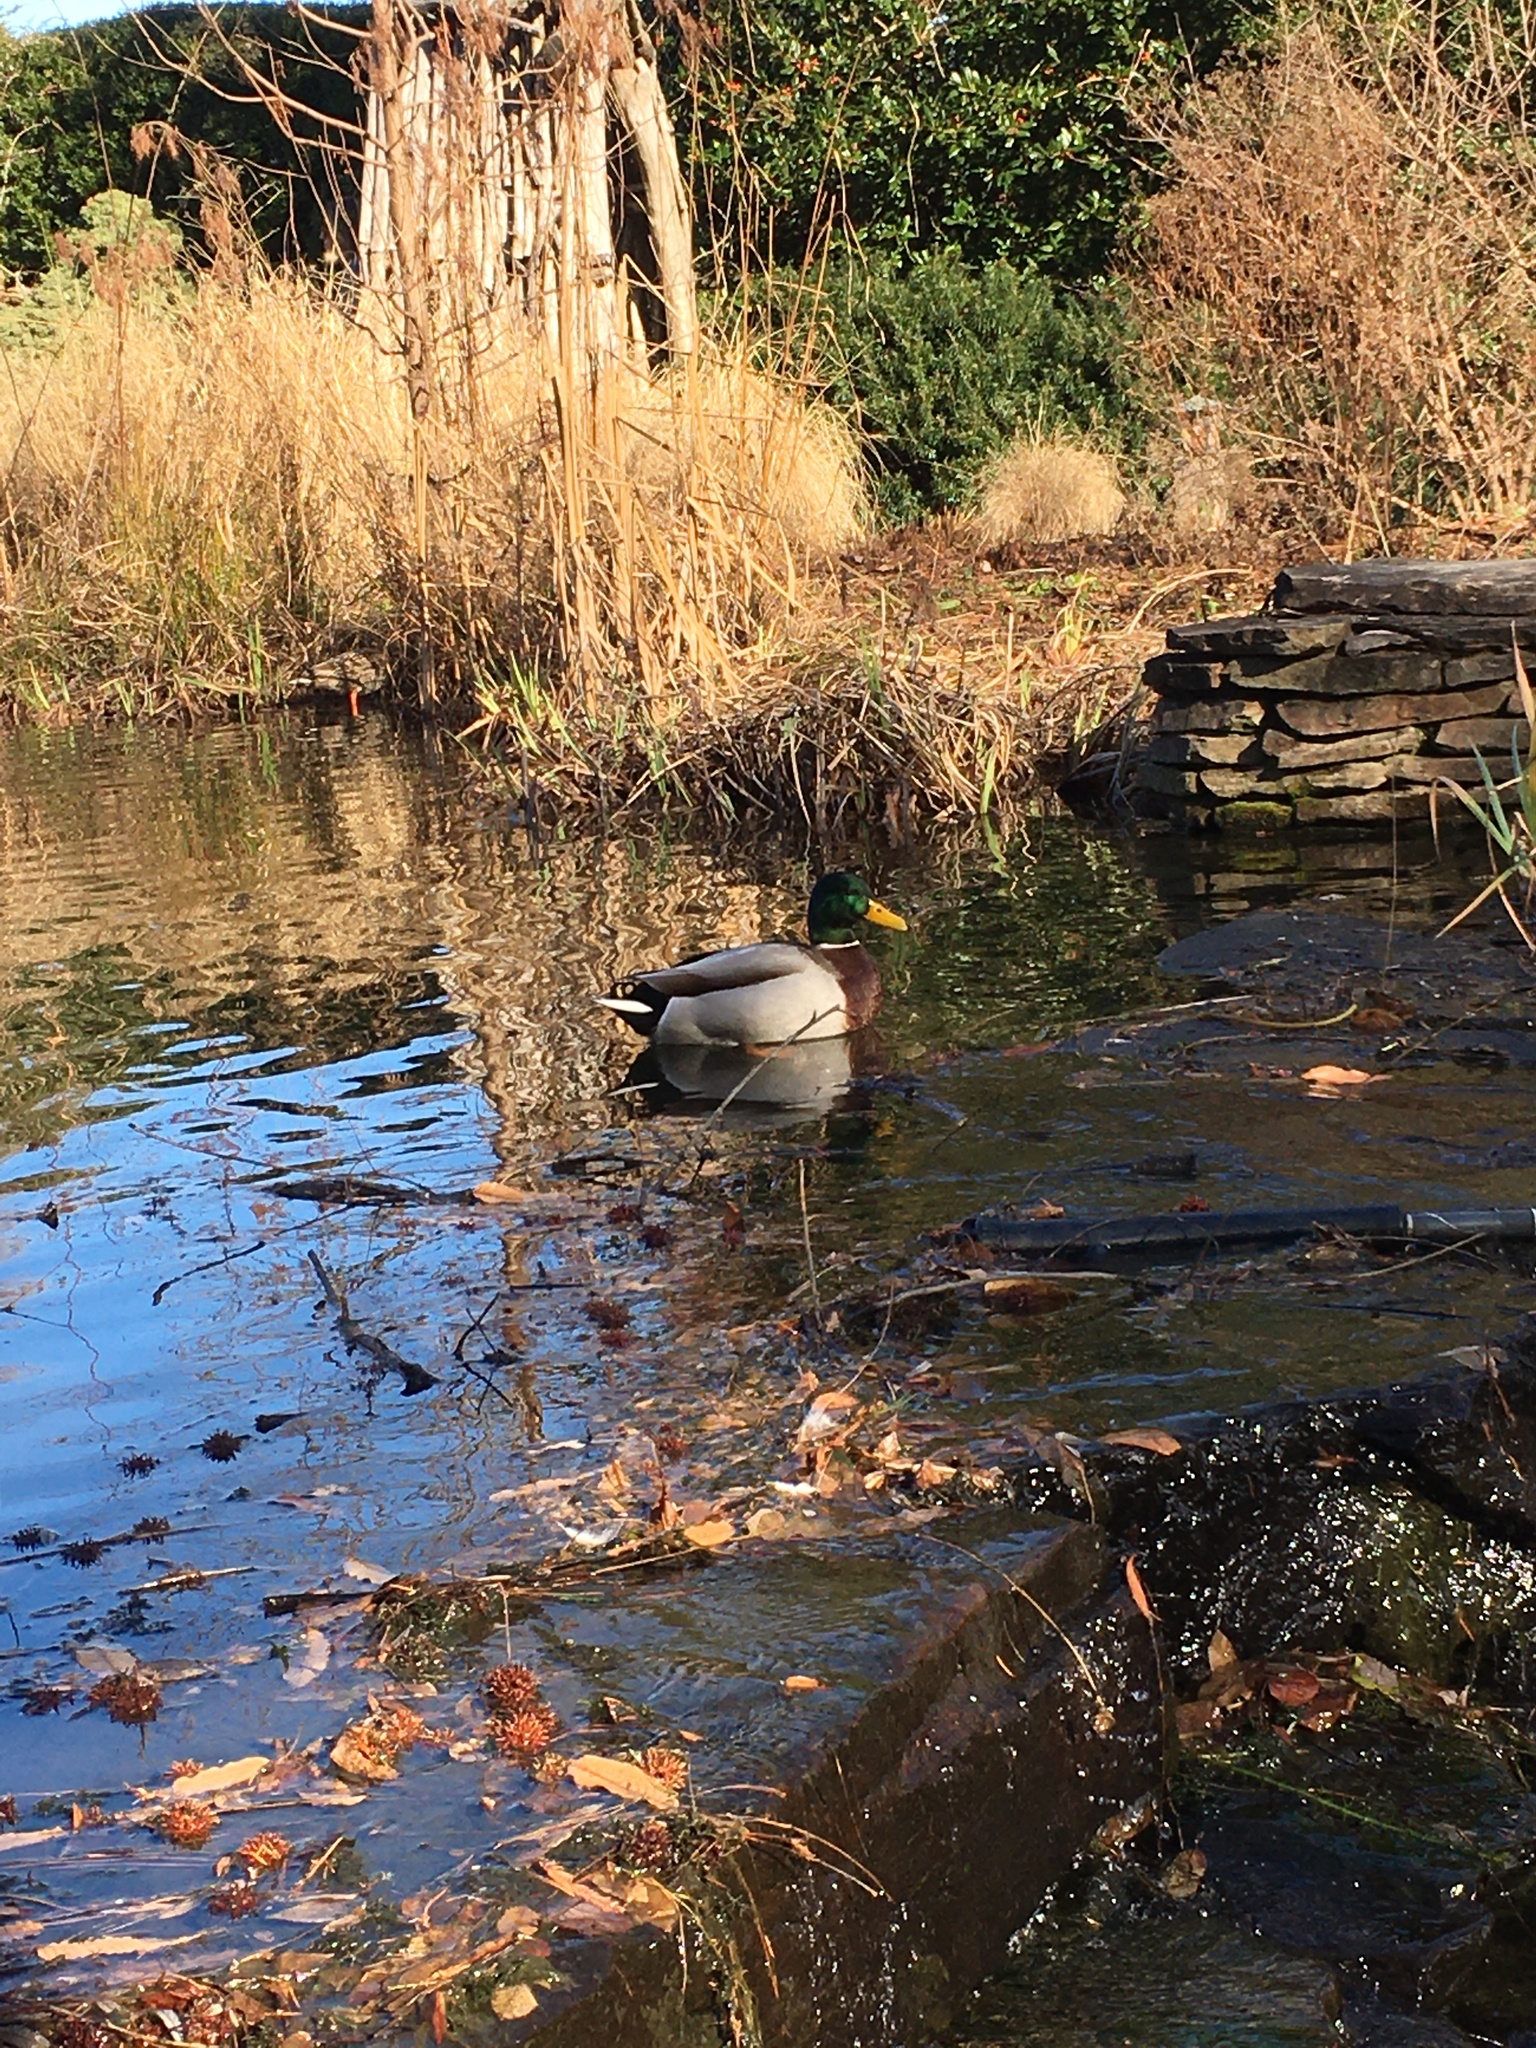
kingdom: Animalia
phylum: Chordata
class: Aves
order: Anseriformes
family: Anatidae
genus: Anas
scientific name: Anas platyrhynchos
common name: Mallard
